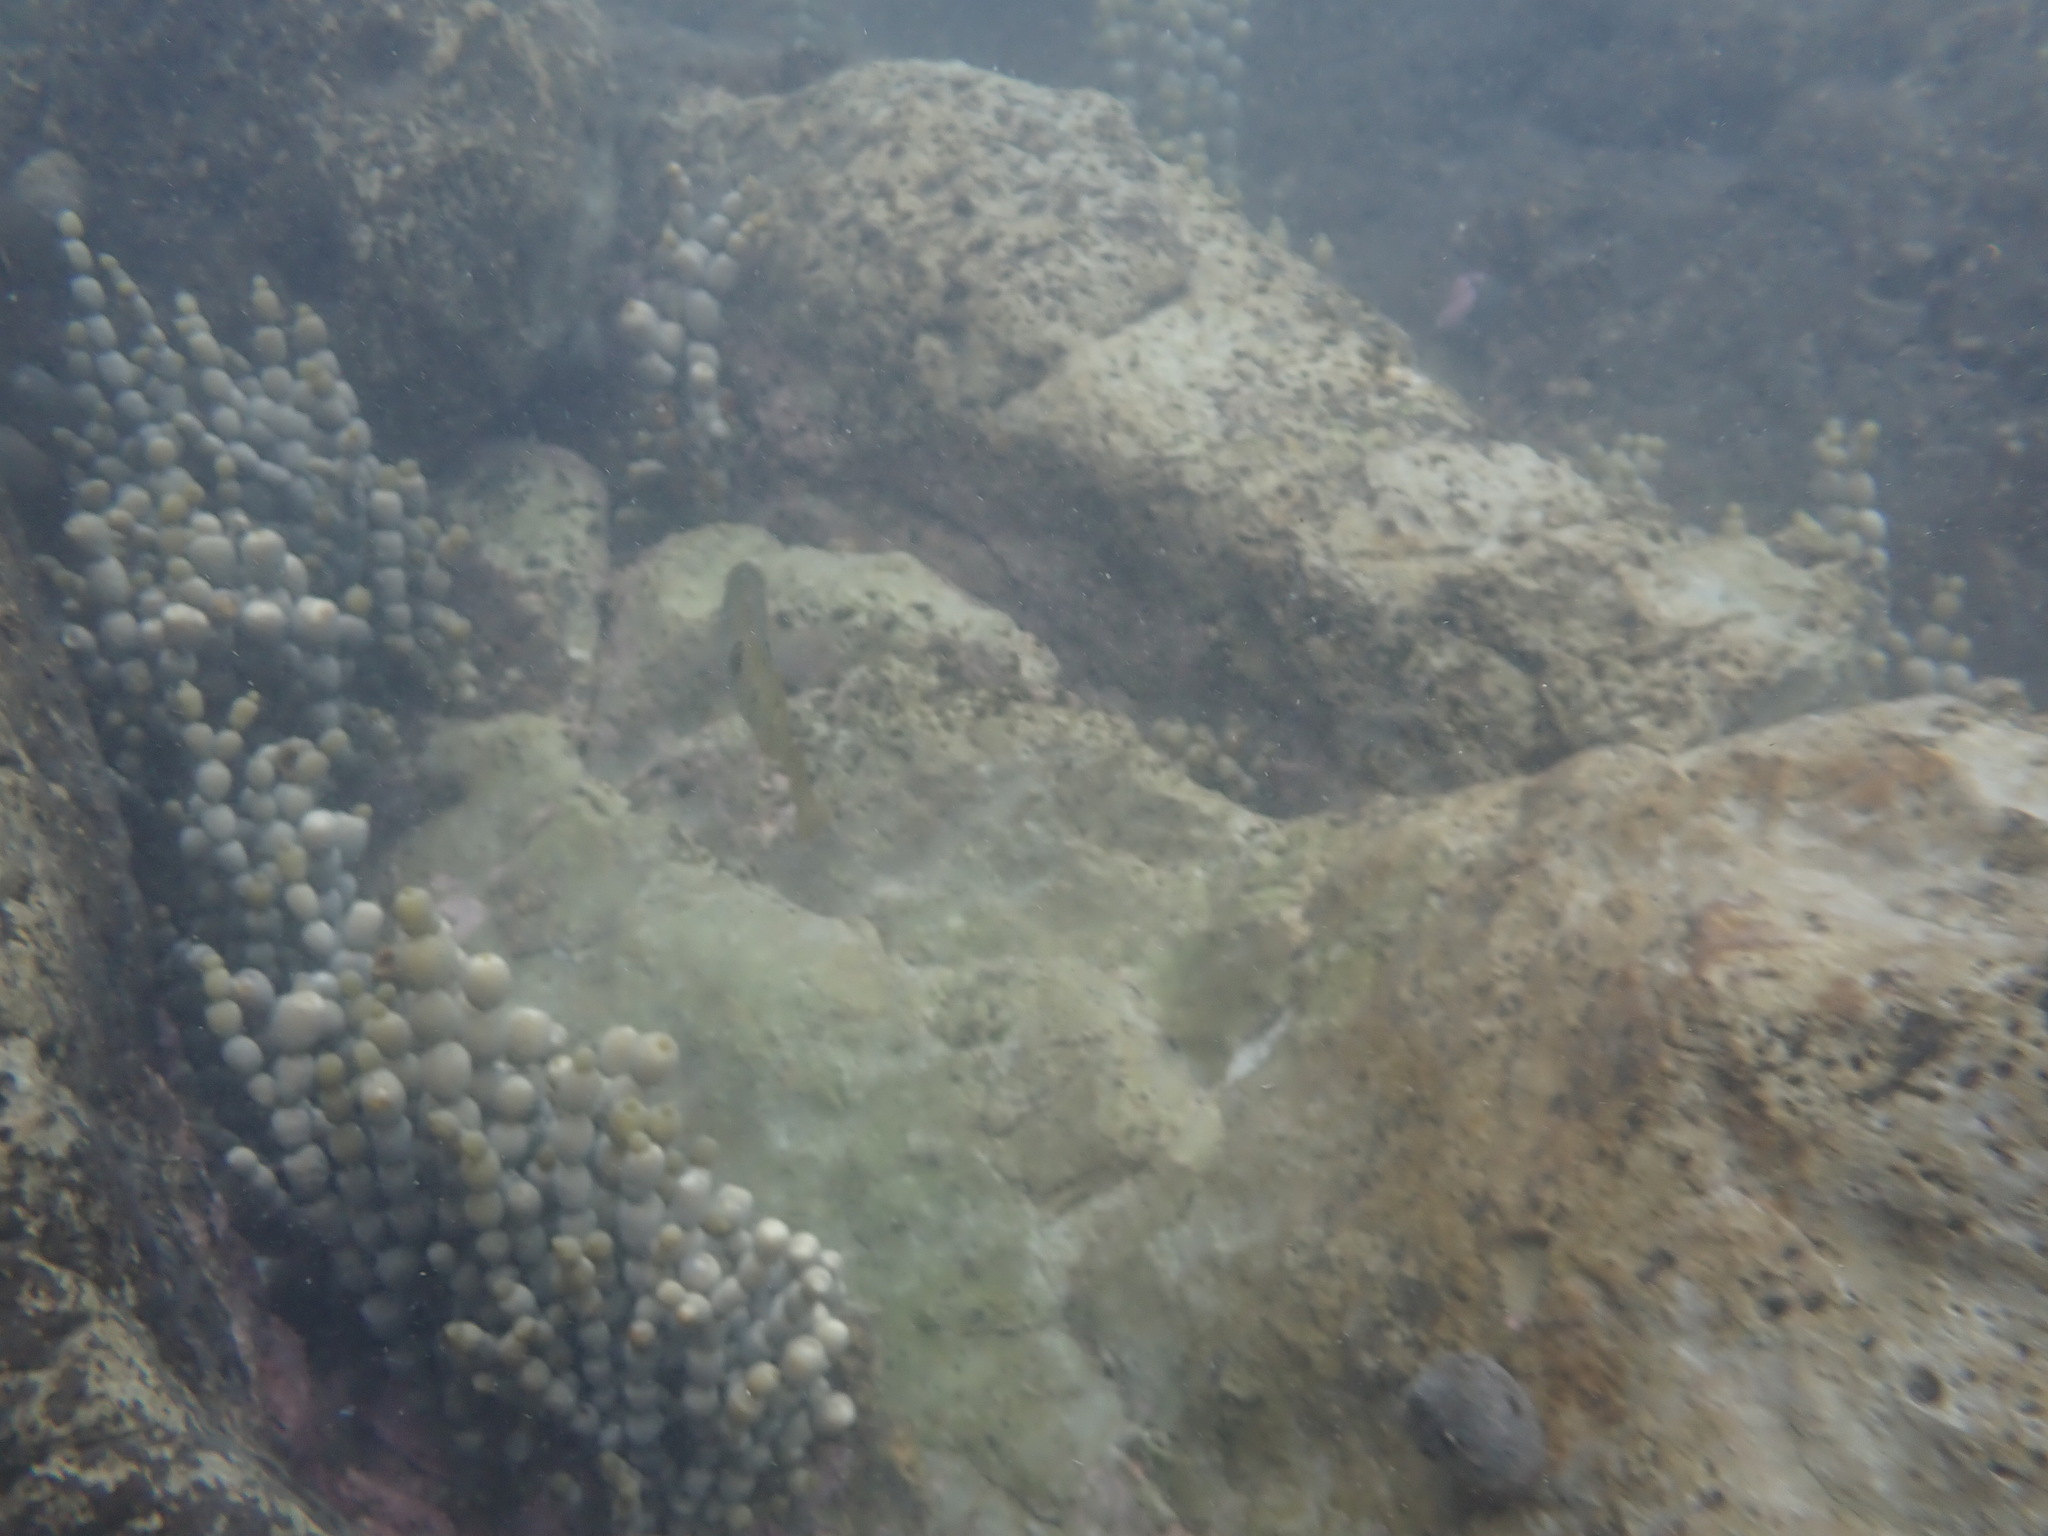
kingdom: Animalia
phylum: Chordata
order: Perciformes
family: Labridae
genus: Notolabrus
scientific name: Notolabrus celidotus
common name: Spotty
